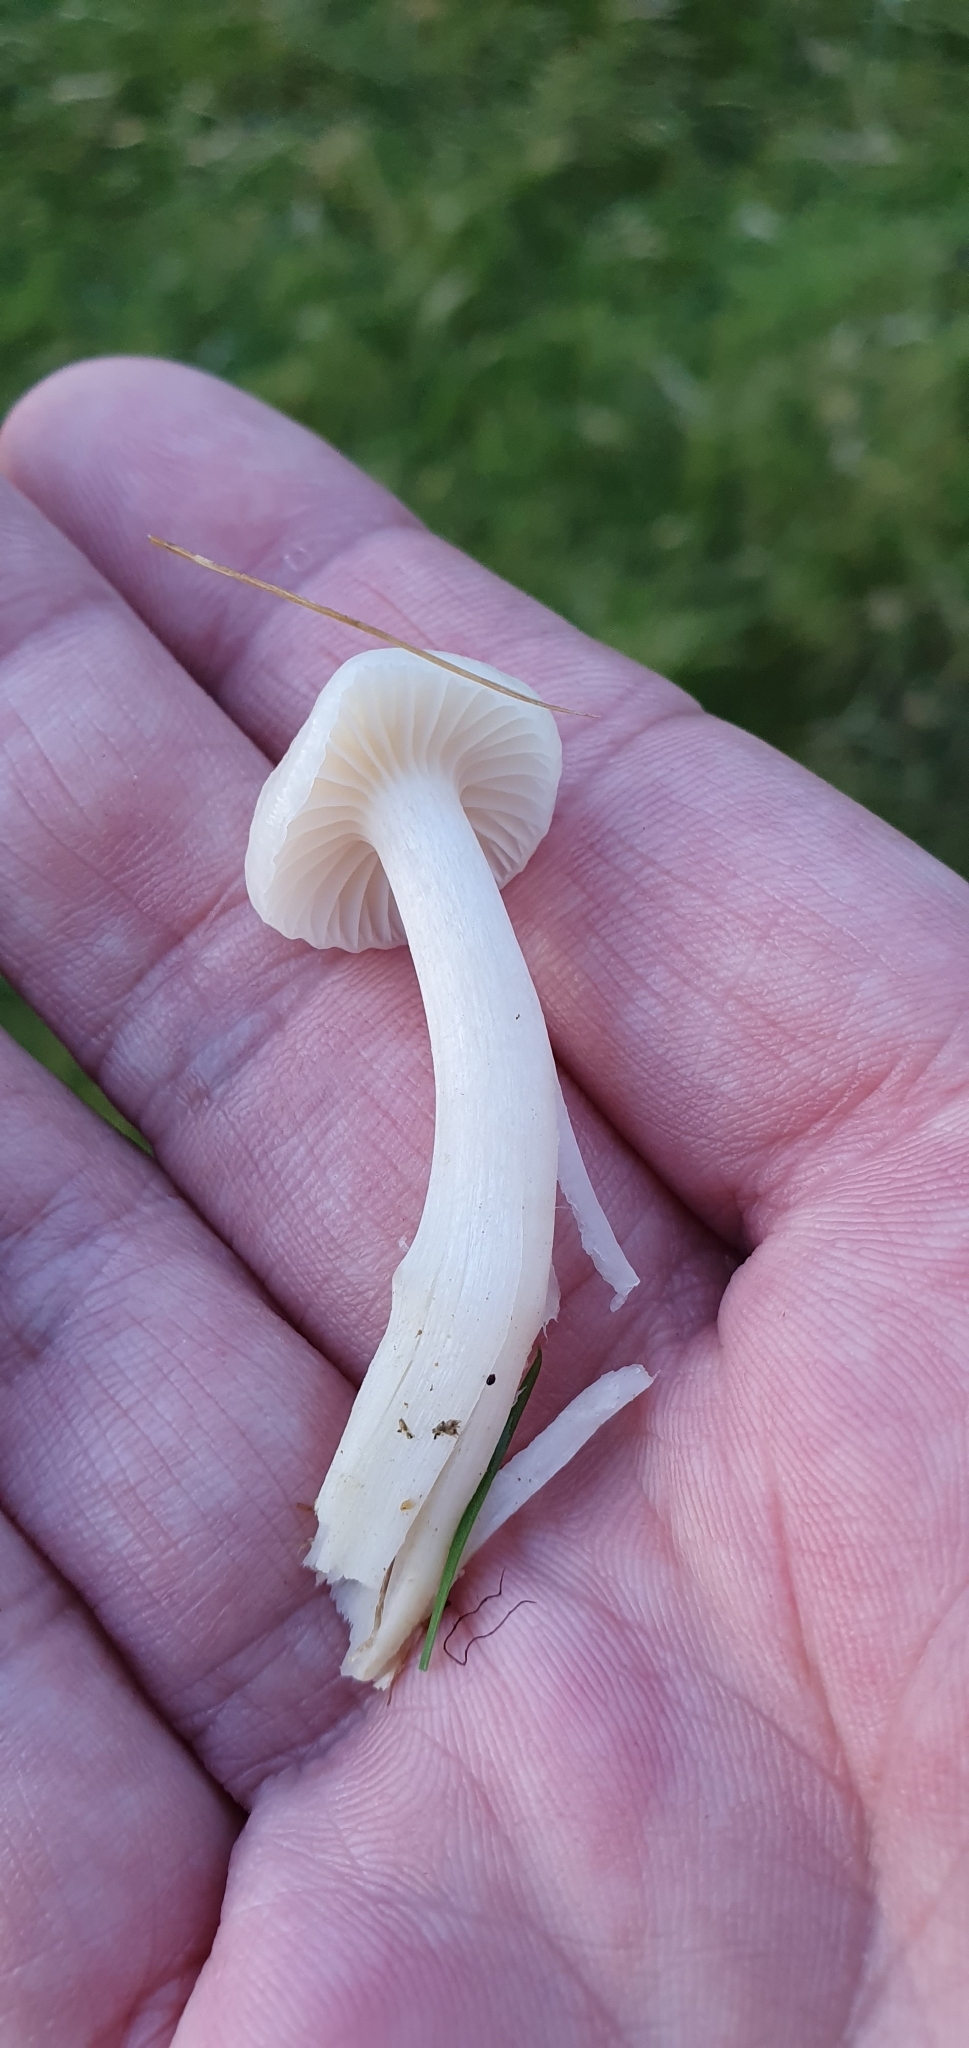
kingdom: Fungi
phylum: Basidiomycota
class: Agaricomycetes
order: Agaricales
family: Hygrophoraceae
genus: Cuphophyllus
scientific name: Cuphophyllus virgineus
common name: Snowy waxcap
